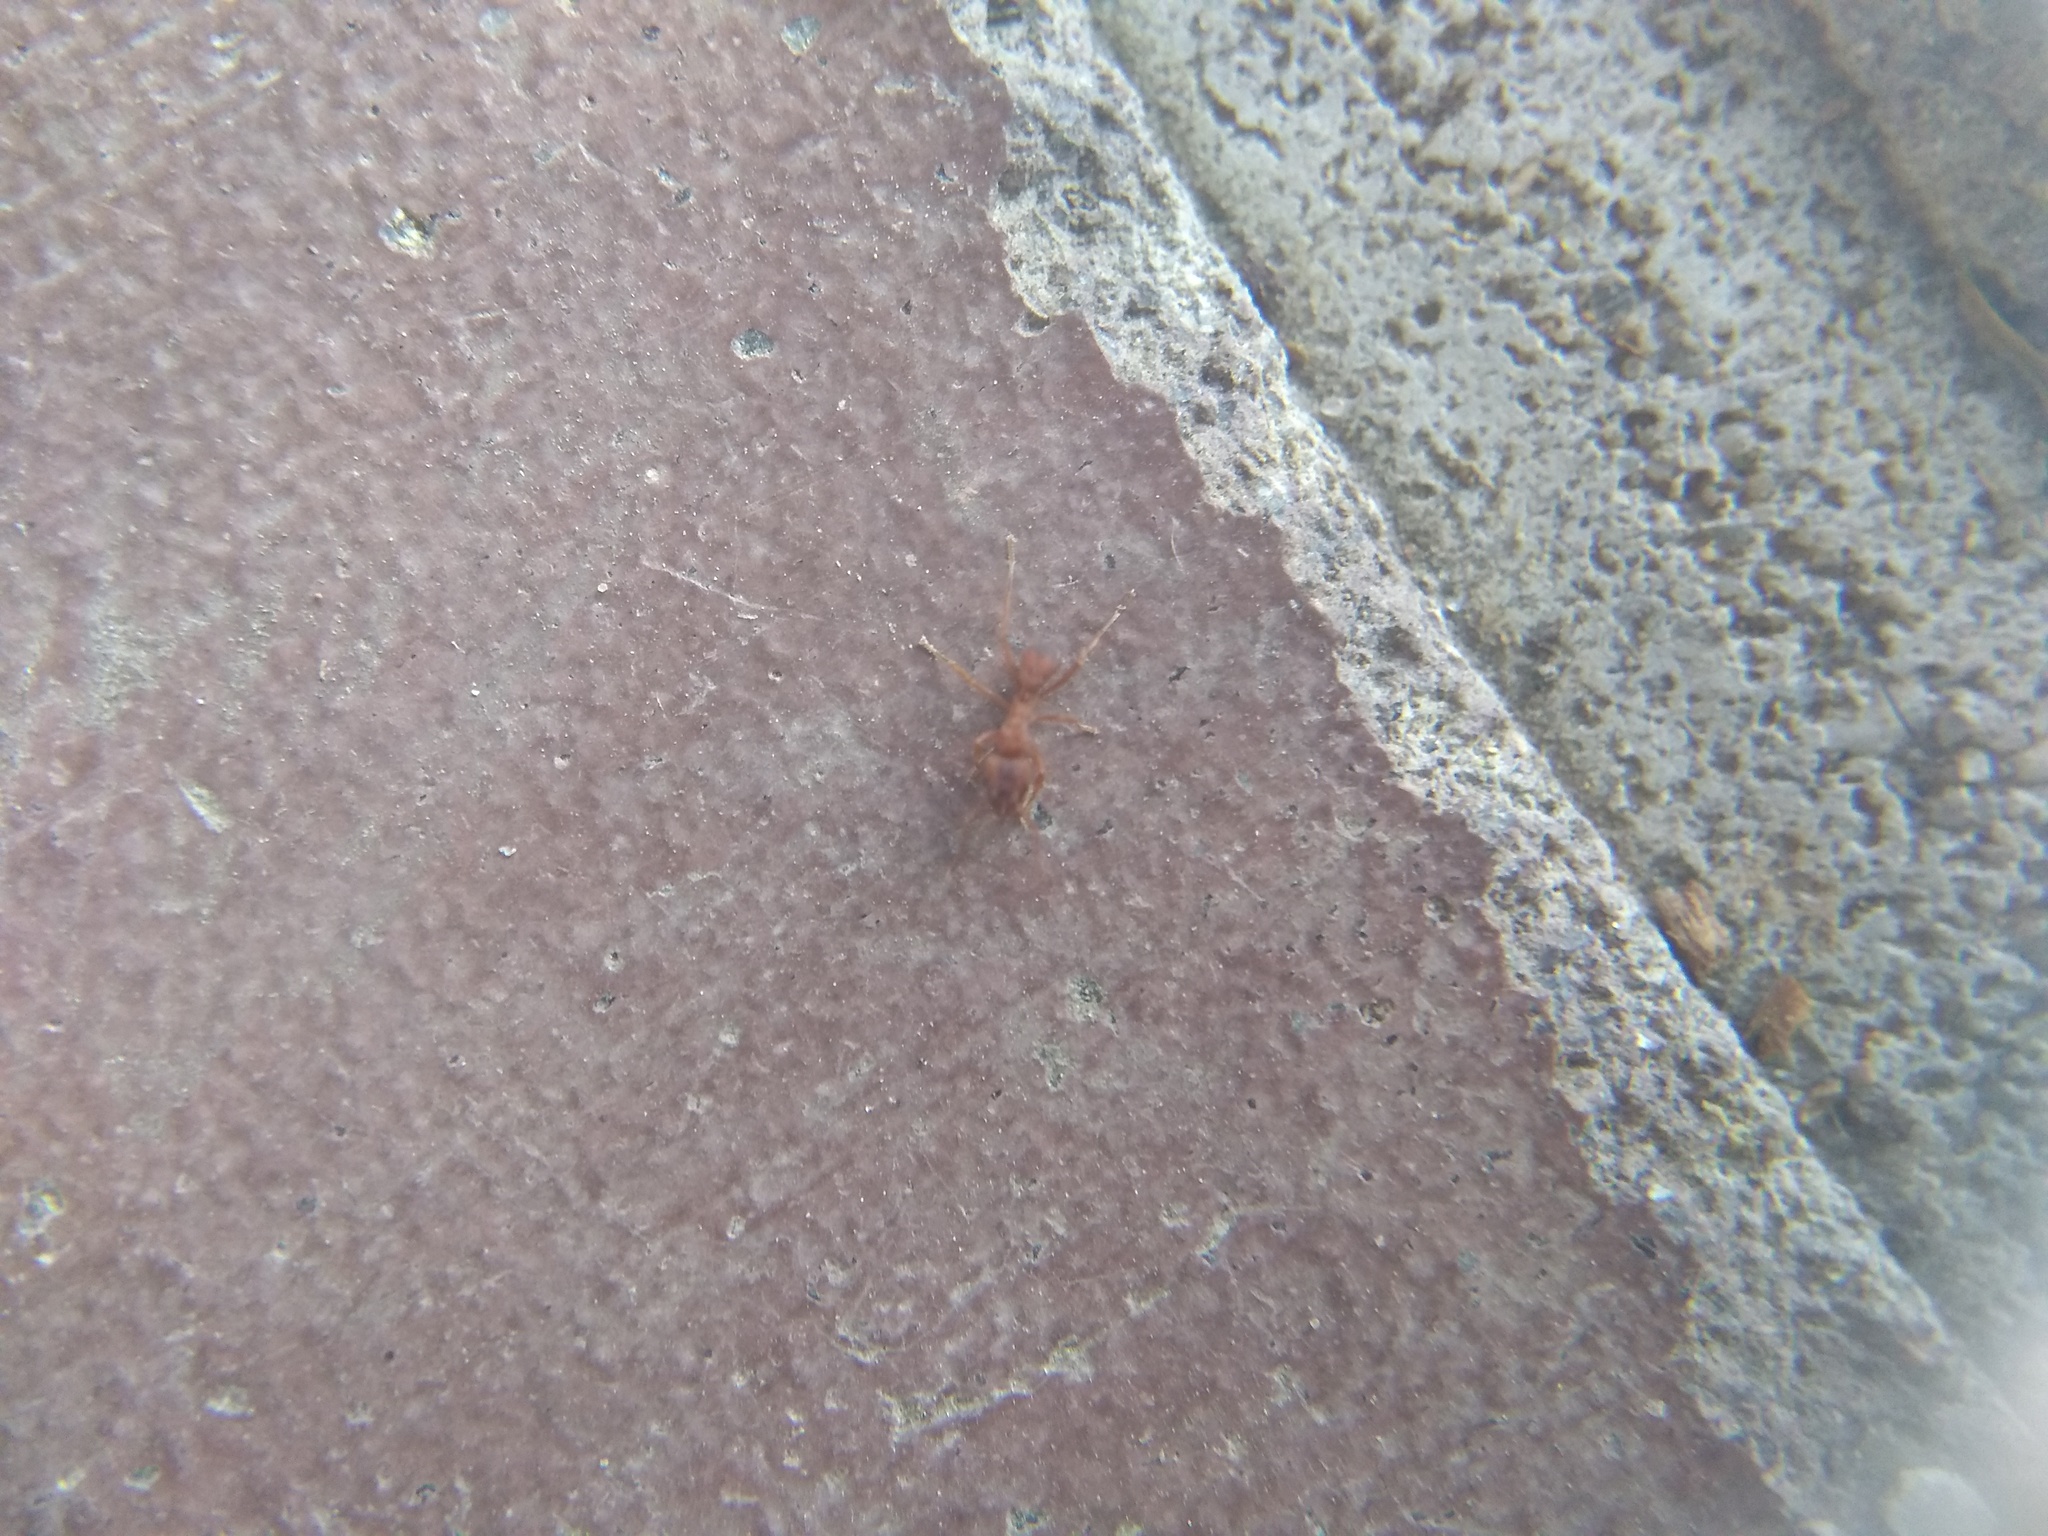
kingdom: Animalia
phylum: Arthropoda
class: Insecta
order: Hymenoptera
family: Formicidae
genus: Trachymyrmex
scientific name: Trachymyrmex septentrionalis
